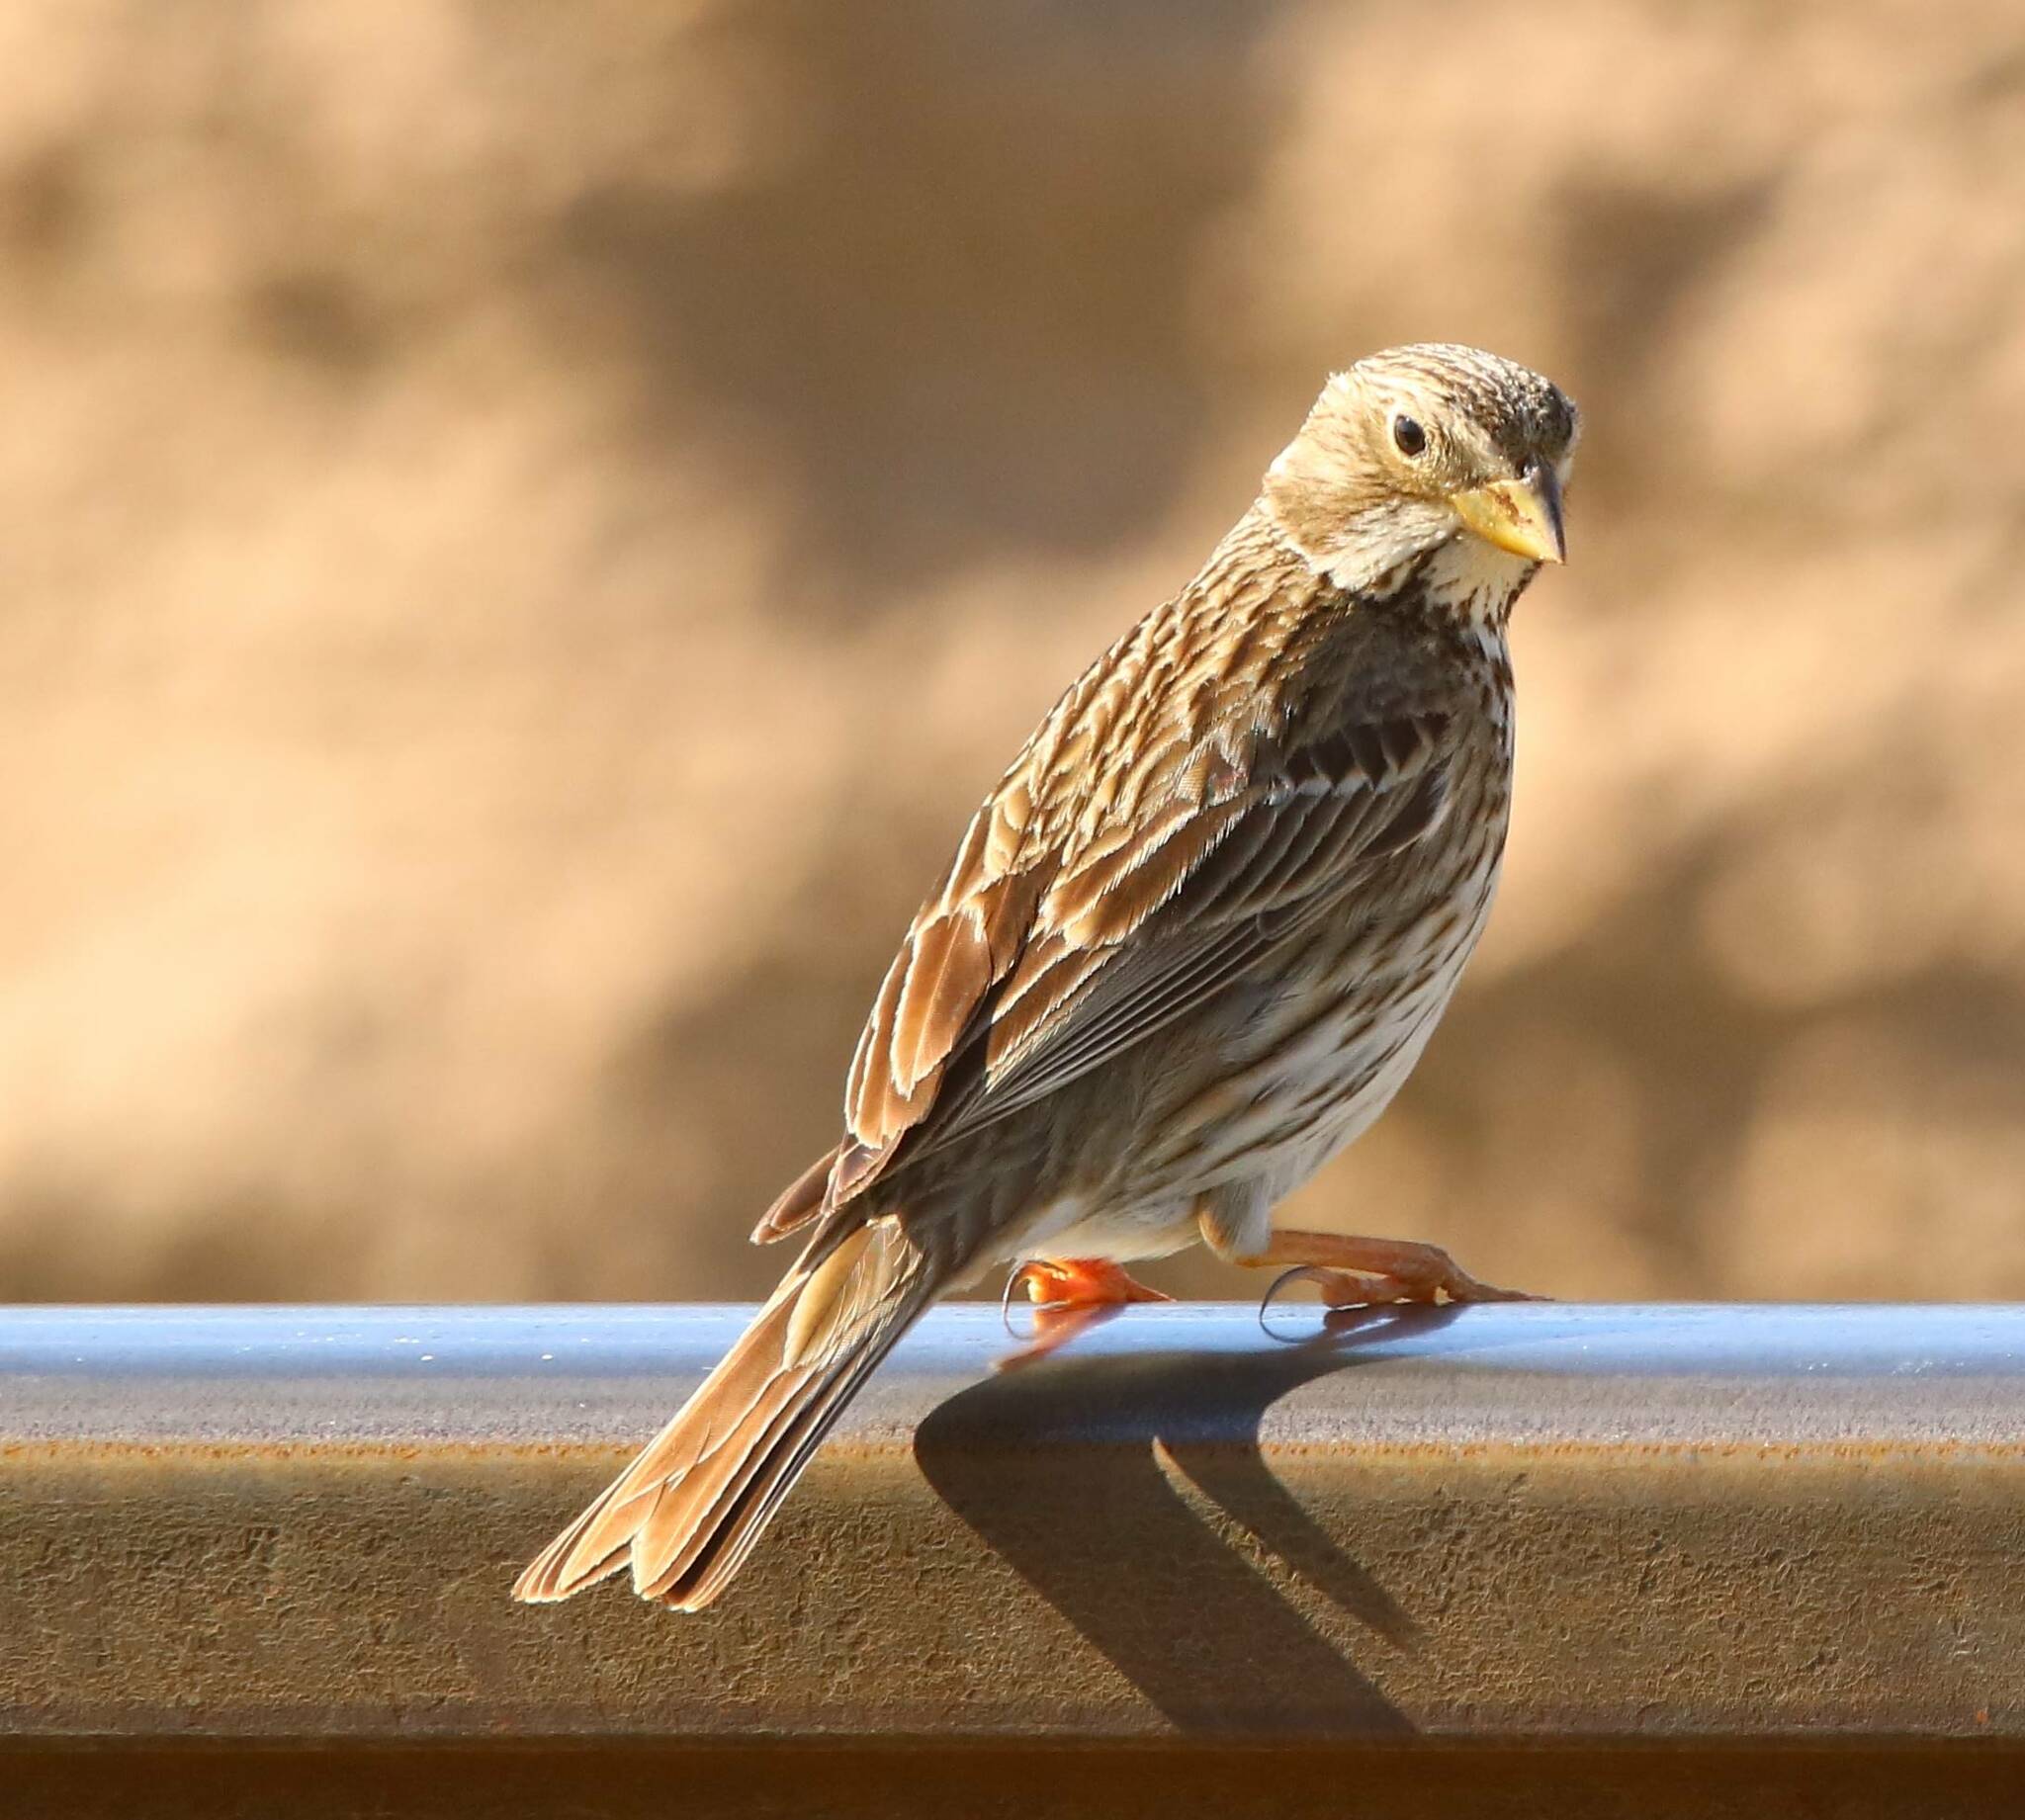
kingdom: Animalia
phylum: Chordata
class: Aves
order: Passeriformes
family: Emberizidae
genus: Emberiza
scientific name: Emberiza calandra
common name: Corn bunting
